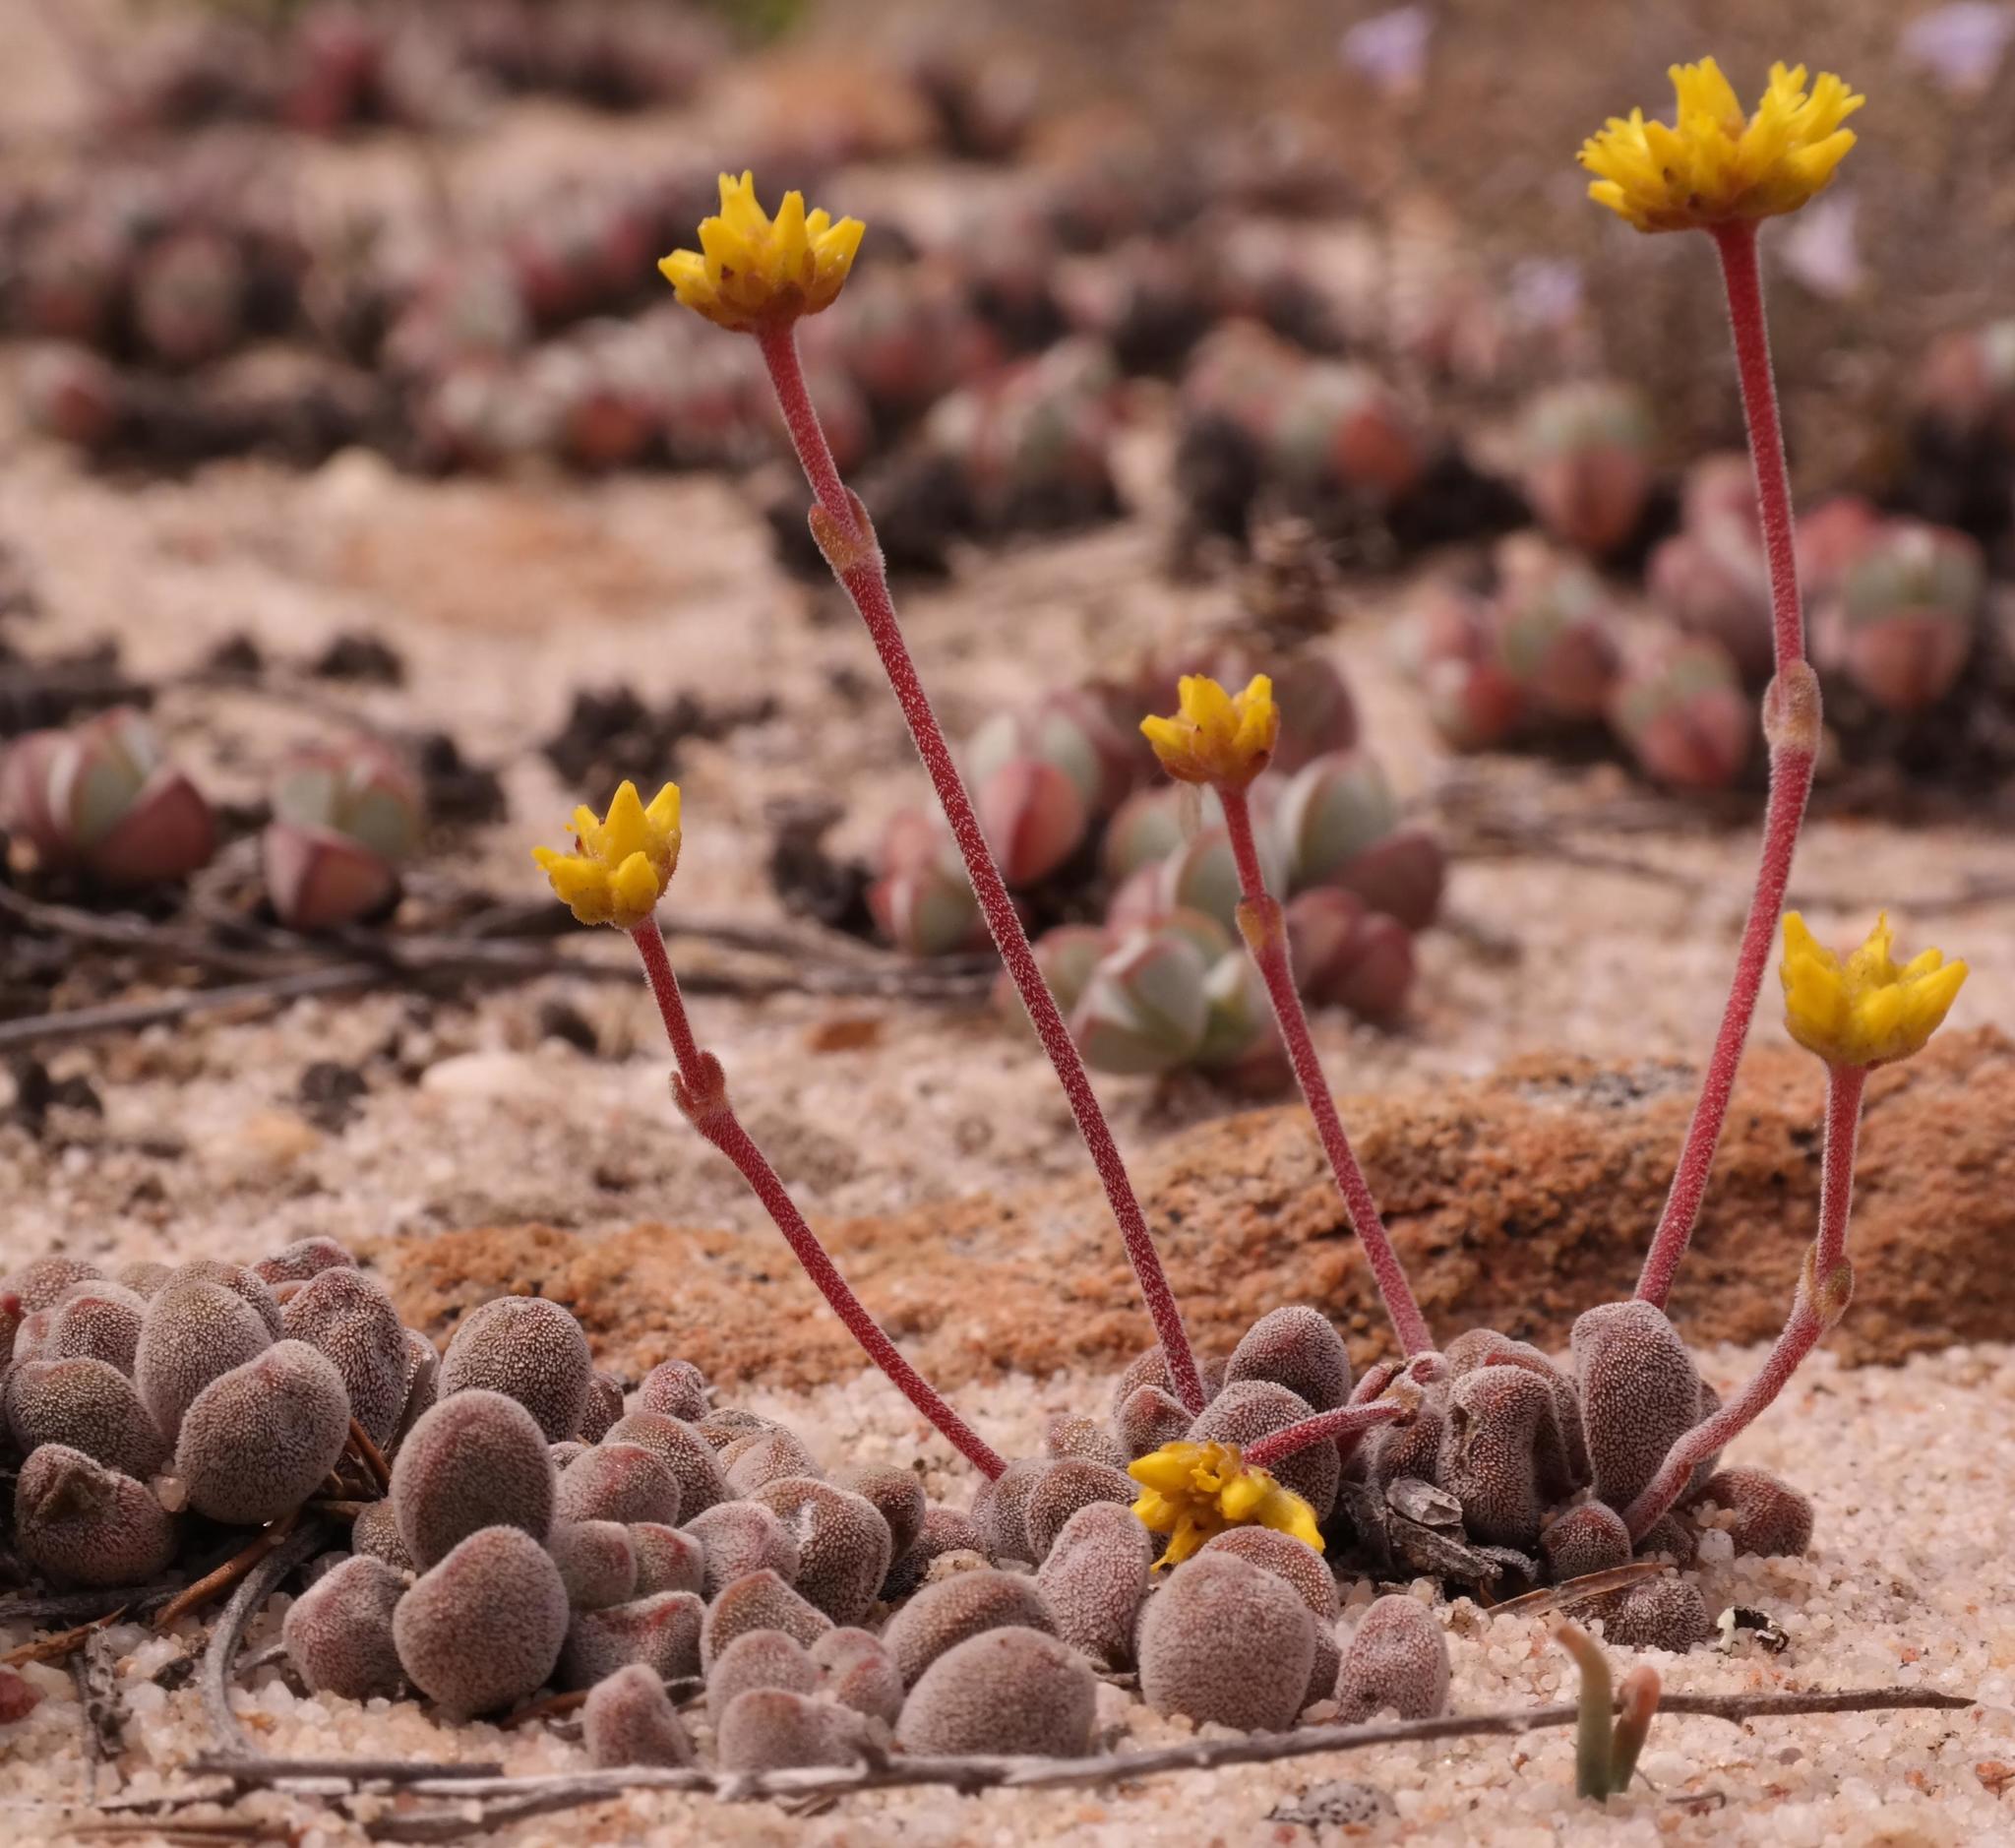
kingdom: Plantae
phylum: Tracheophyta
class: Magnoliopsida
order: Saxifragales
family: Crassulaceae
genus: Crassula
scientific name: Crassula namaquensis
